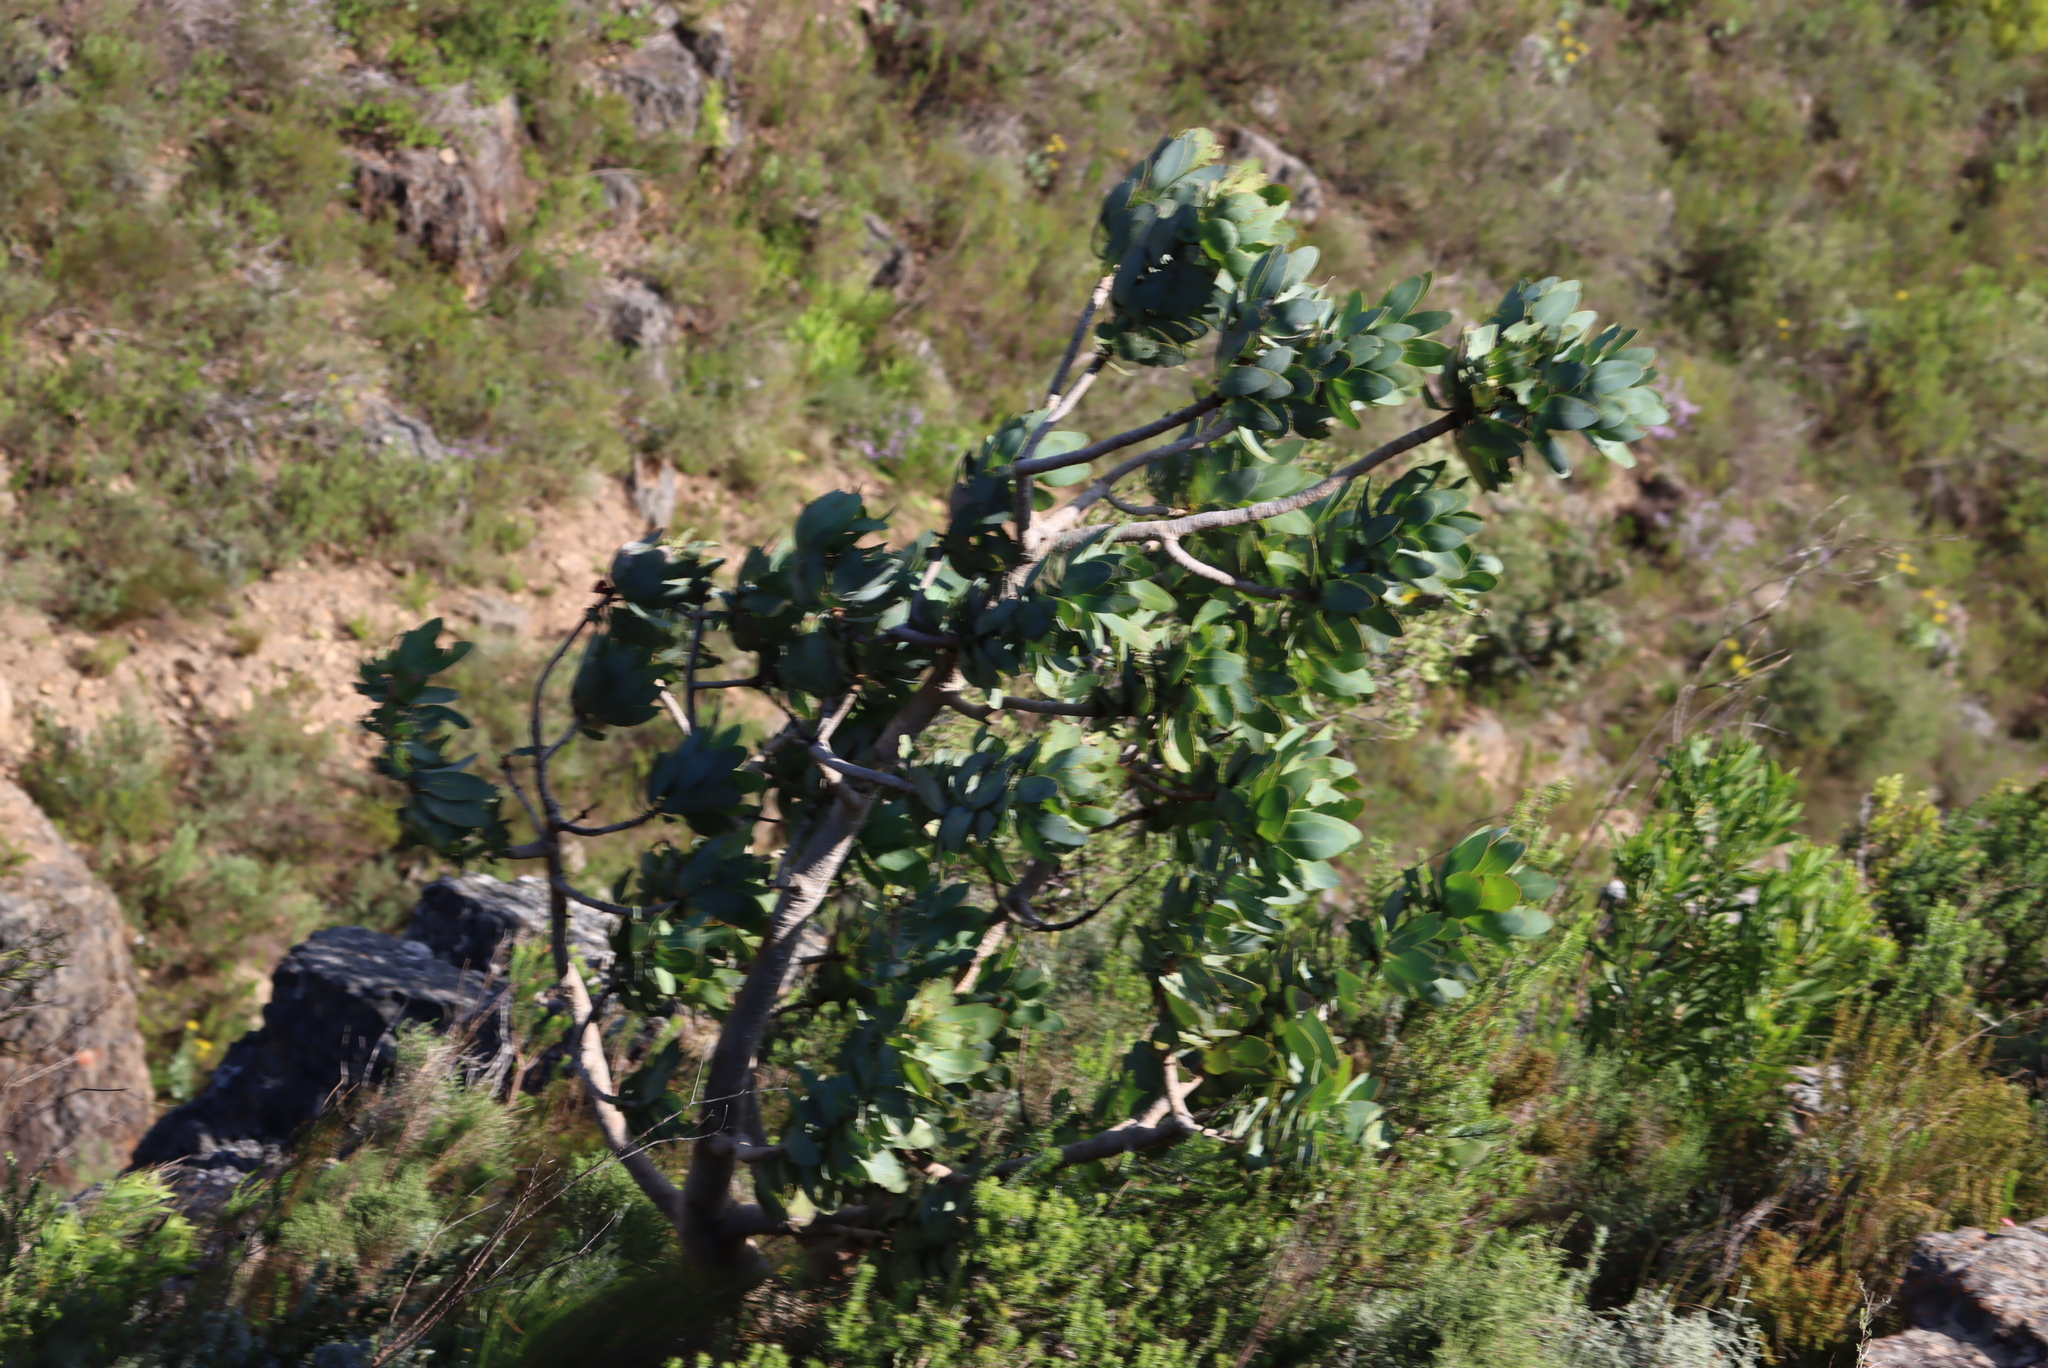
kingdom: Plantae
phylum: Tracheophyta
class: Magnoliopsida
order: Proteales
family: Proteaceae
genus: Protea
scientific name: Protea nitida
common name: Tree protea
